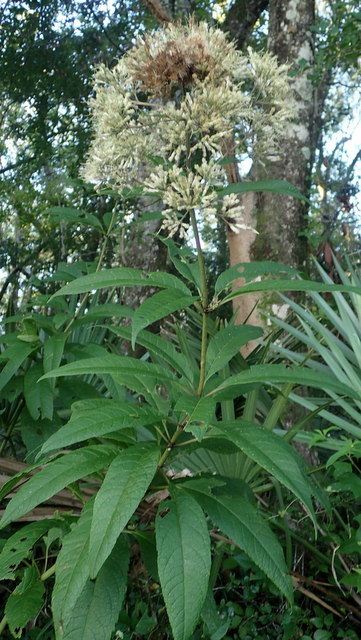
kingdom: Plantae
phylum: Tracheophyta
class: Magnoliopsida
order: Asterales
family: Asteraceae
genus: Eutrochium
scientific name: Eutrochium fistulosum
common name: Trumpetweed
